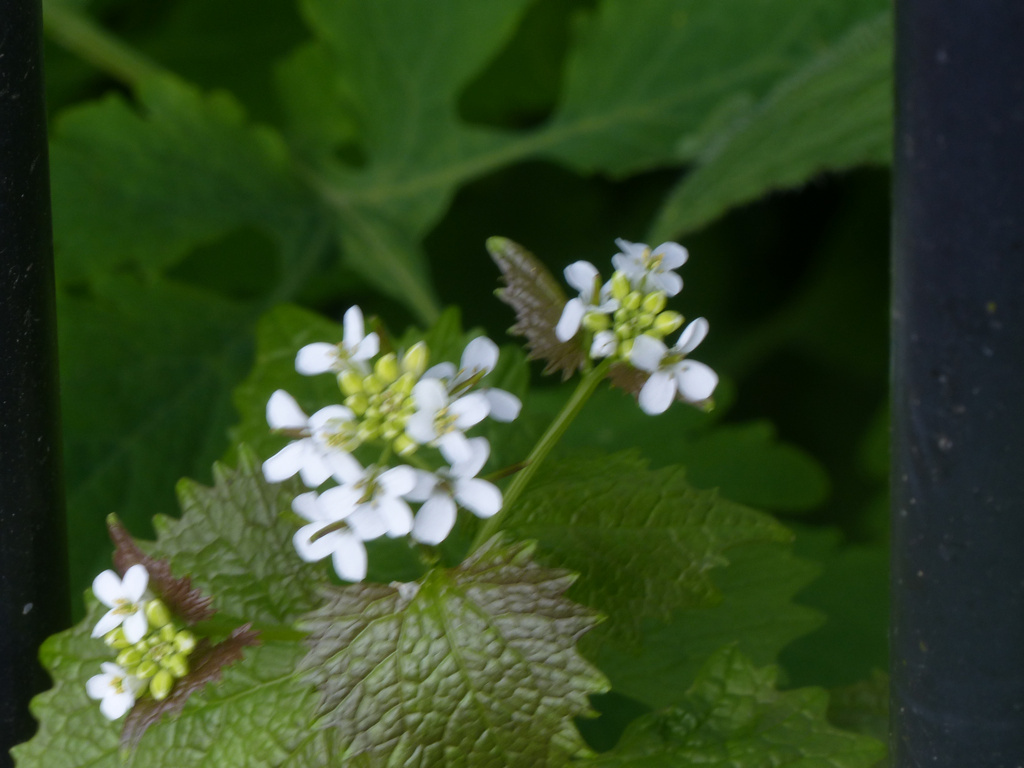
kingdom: Plantae
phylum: Tracheophyta
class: Magnoliopsida
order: Brassicales
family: Brassicaceae
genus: Alliaria
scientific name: Alliaria petiolata
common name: Garlic mustard
